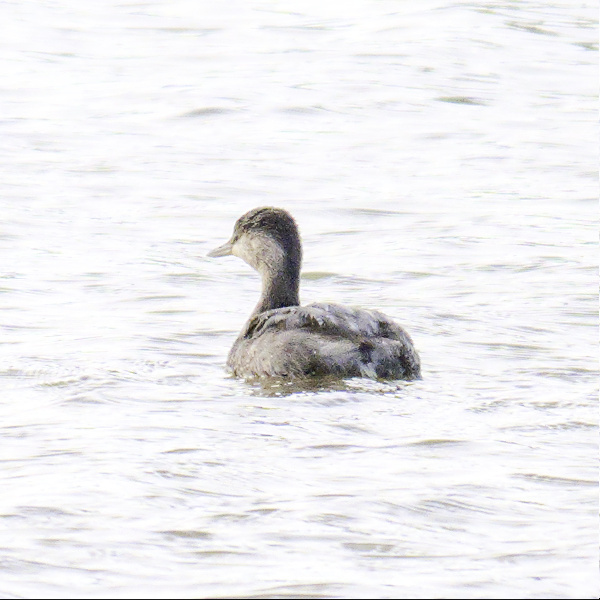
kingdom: Animalia
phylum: Chordata
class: Aves
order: Podicipediformes
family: Podicipedidae
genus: Poliocephalus
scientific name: Poliocephalus poliocephalus
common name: Hoary-headed grebe
